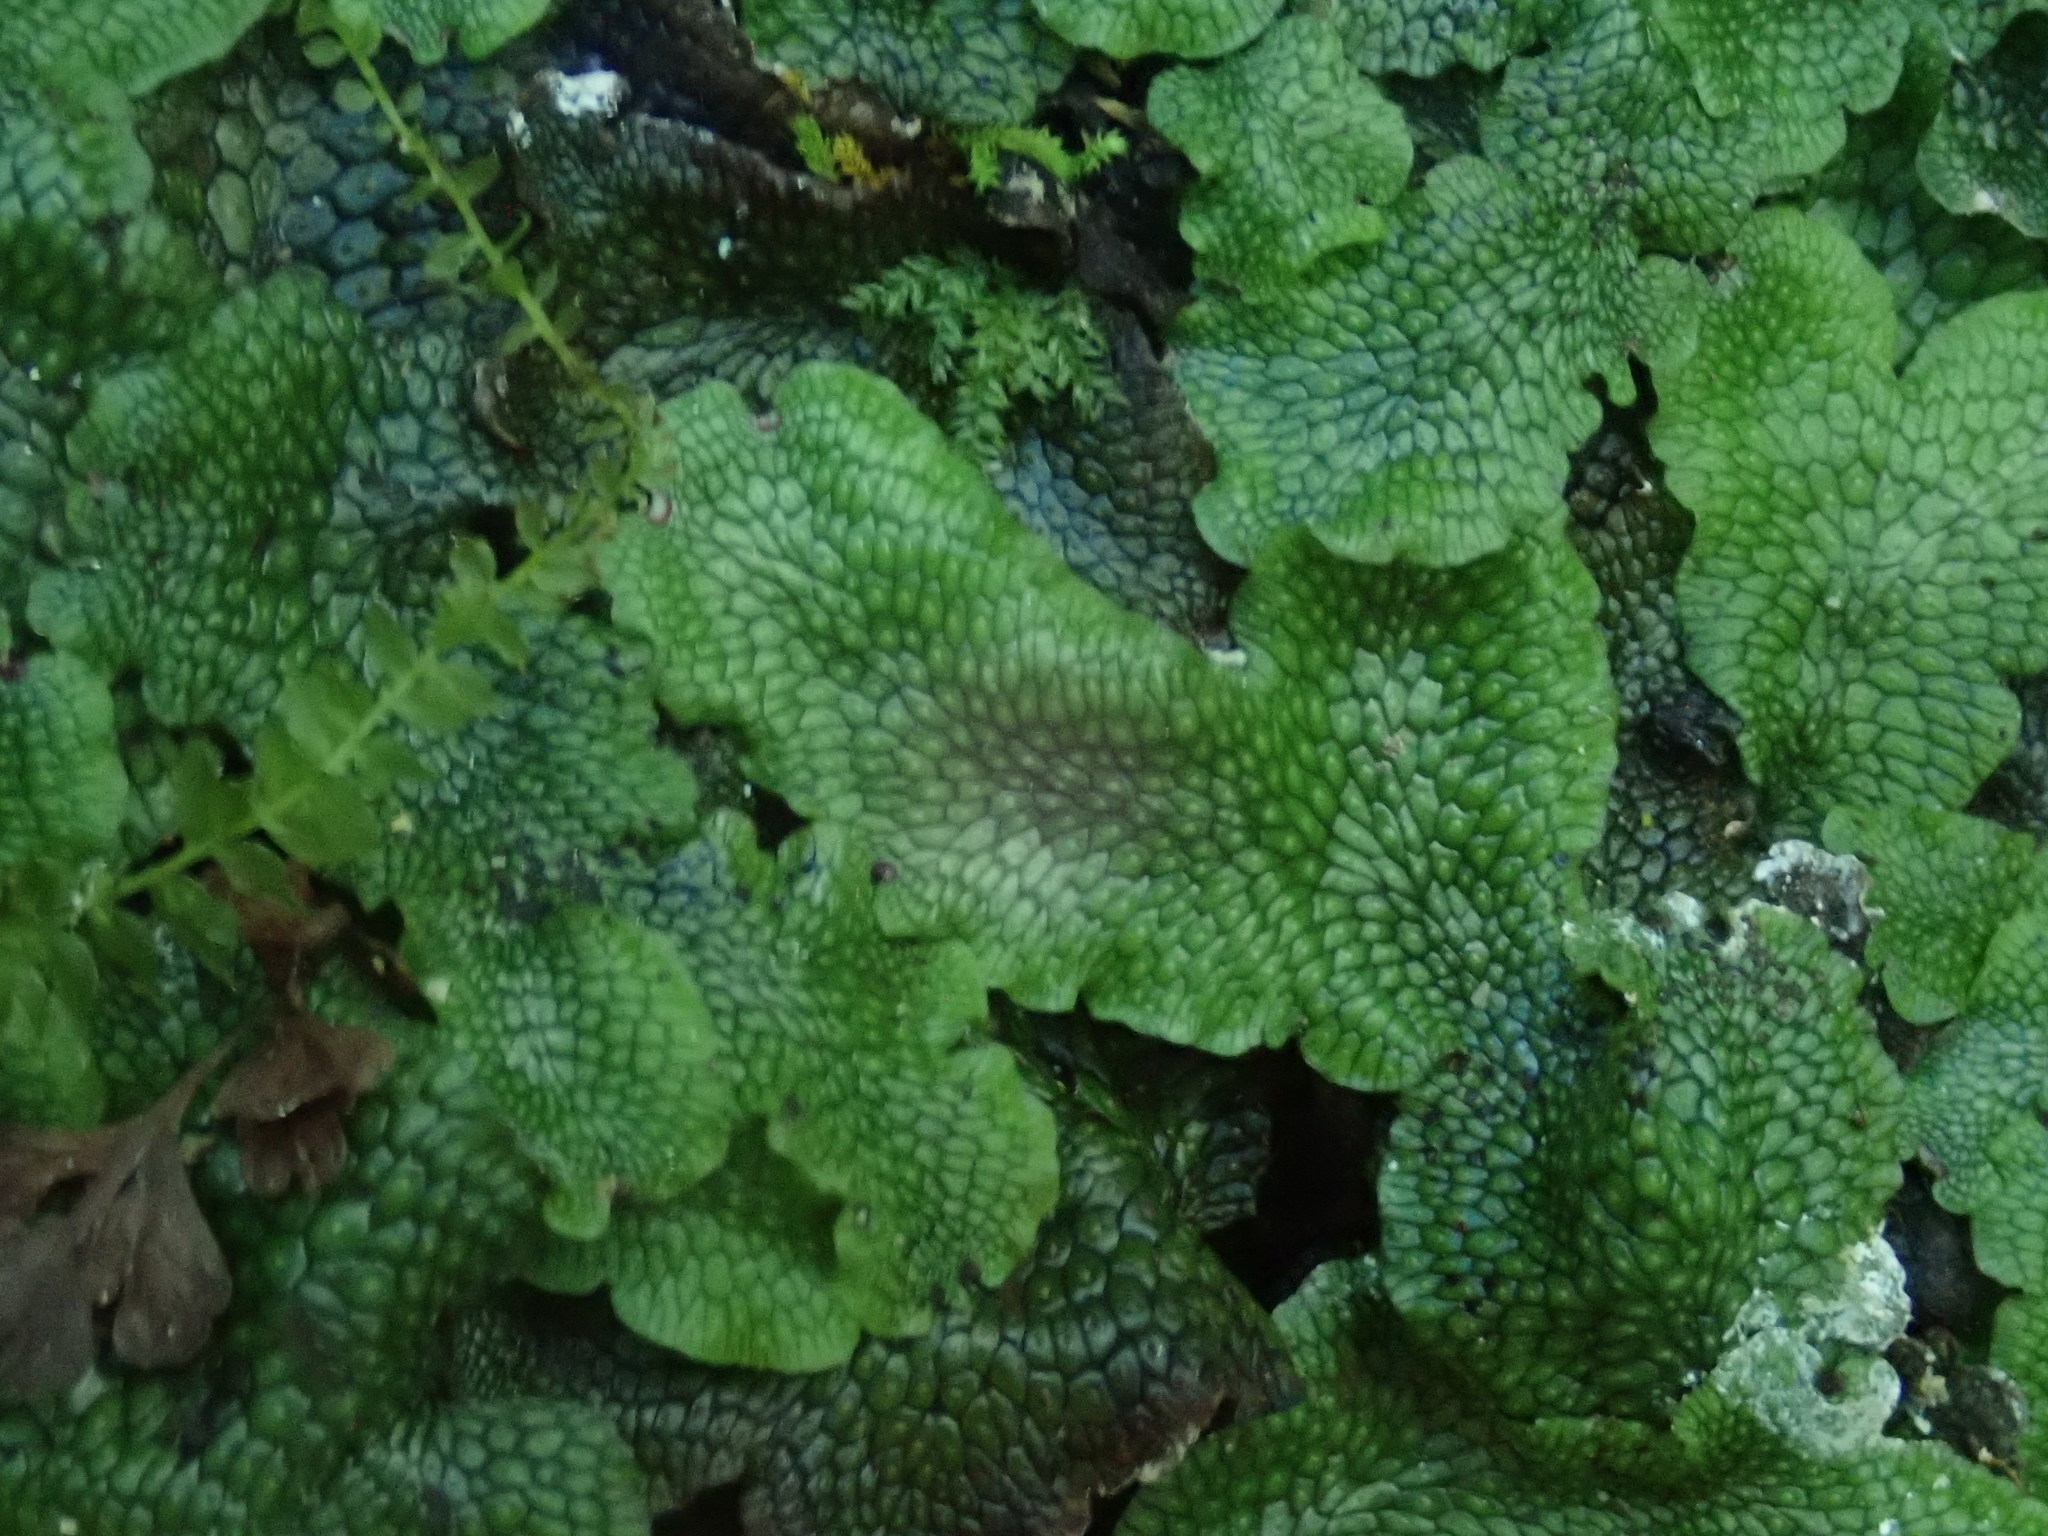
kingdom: Plantae
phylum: Marchantiophyta
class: Marchantiopsida
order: Marchantiales
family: Conocephalaceae
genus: Conocephalum
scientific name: Conocephalum salebrosum
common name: Cat-tongue liverwort
